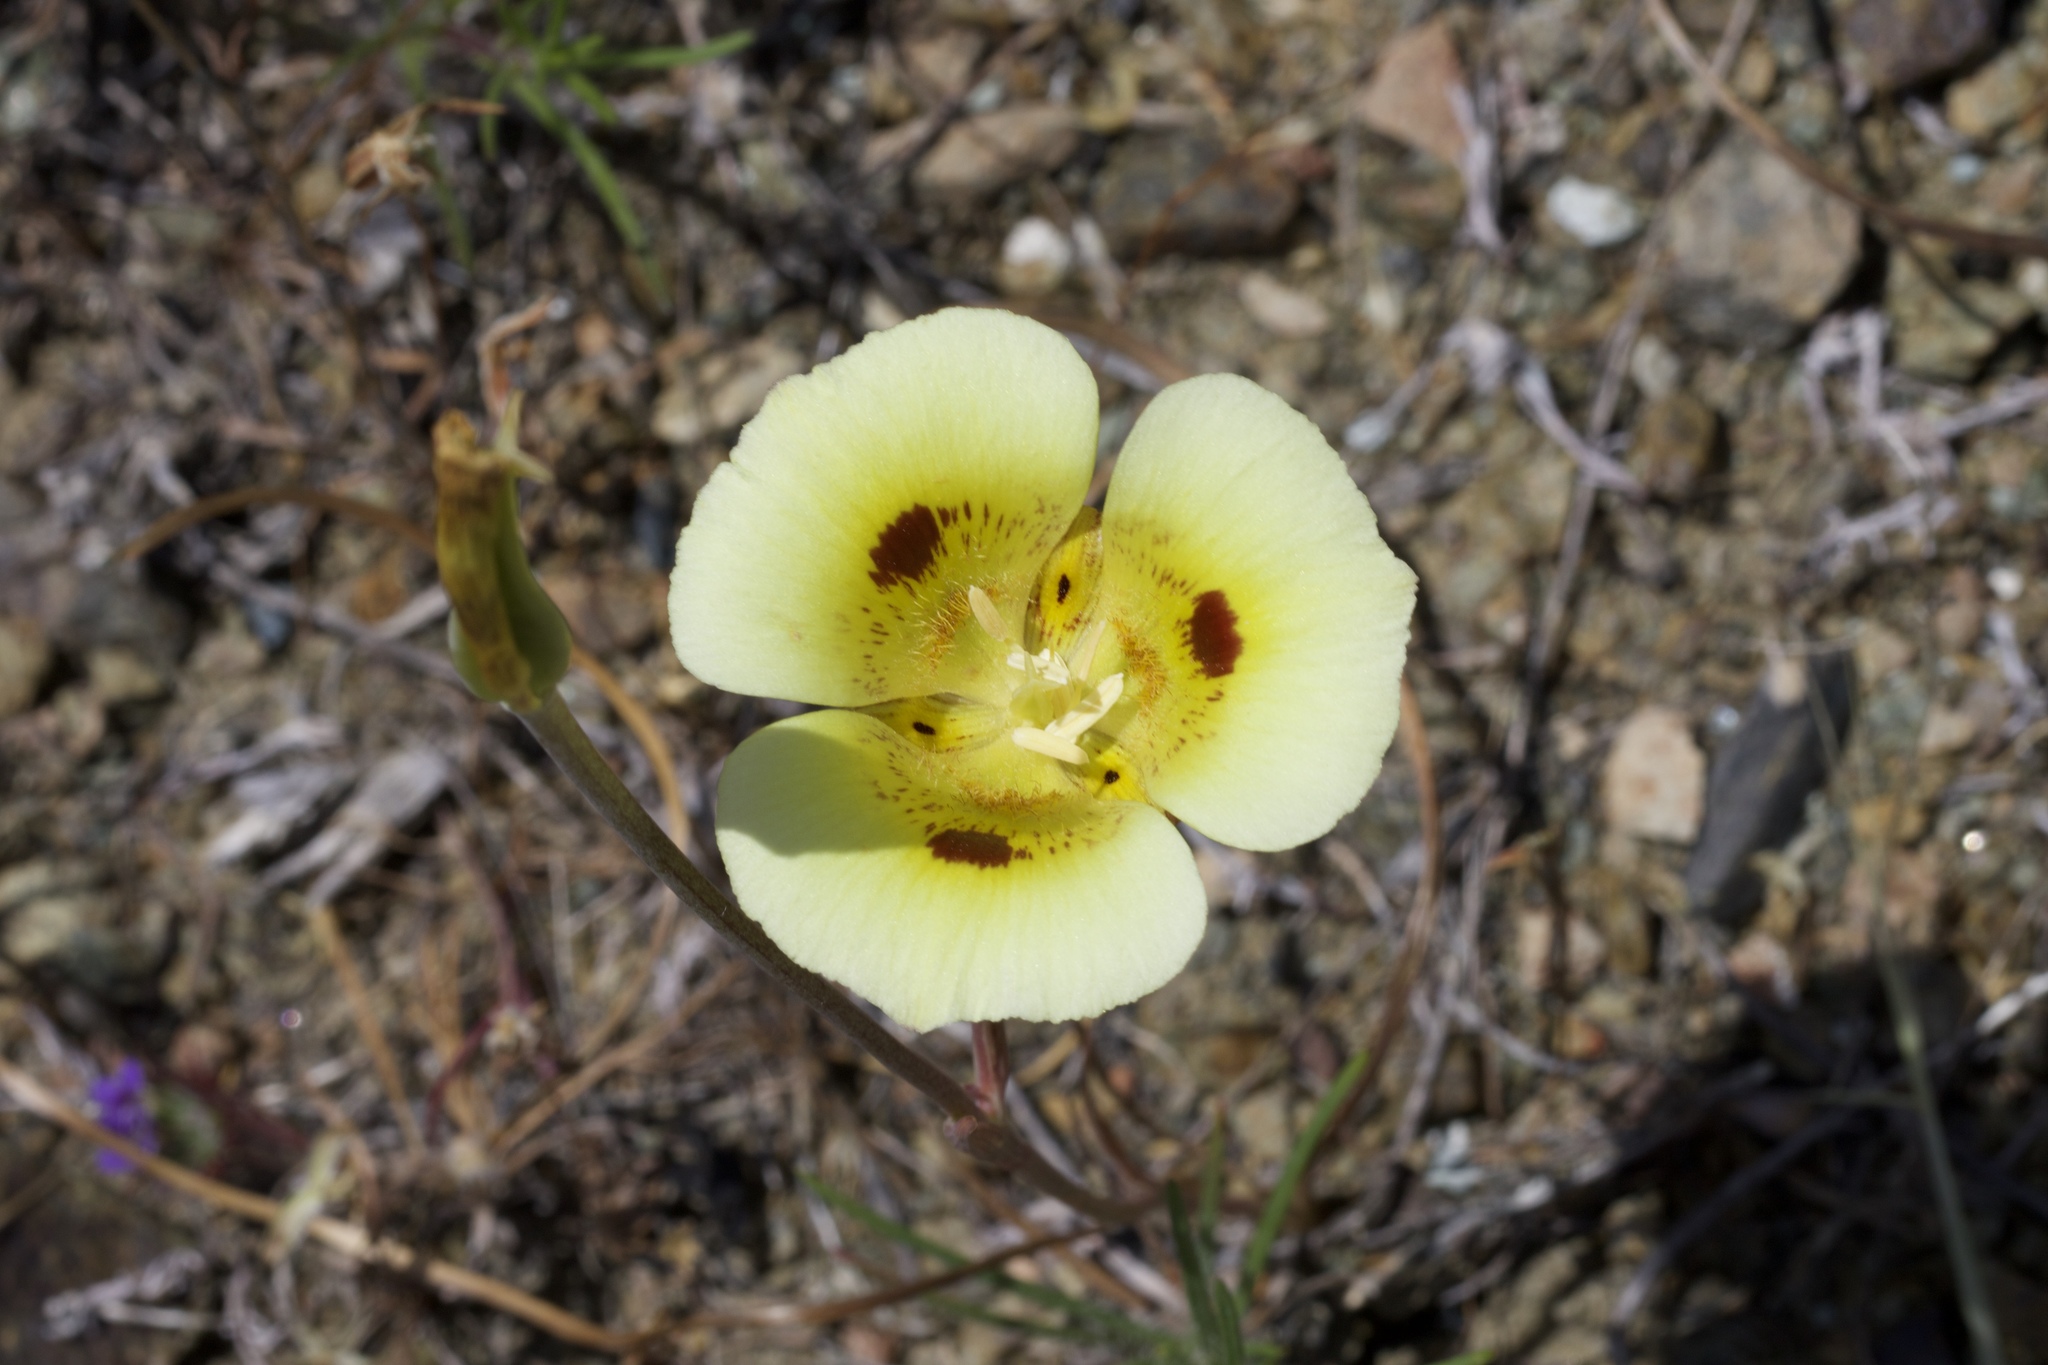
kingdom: Plantae
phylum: Tracheophyta
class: Liliopsida
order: Liliales
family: Liliaceae
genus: Calochortus
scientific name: Calochortus superbus
